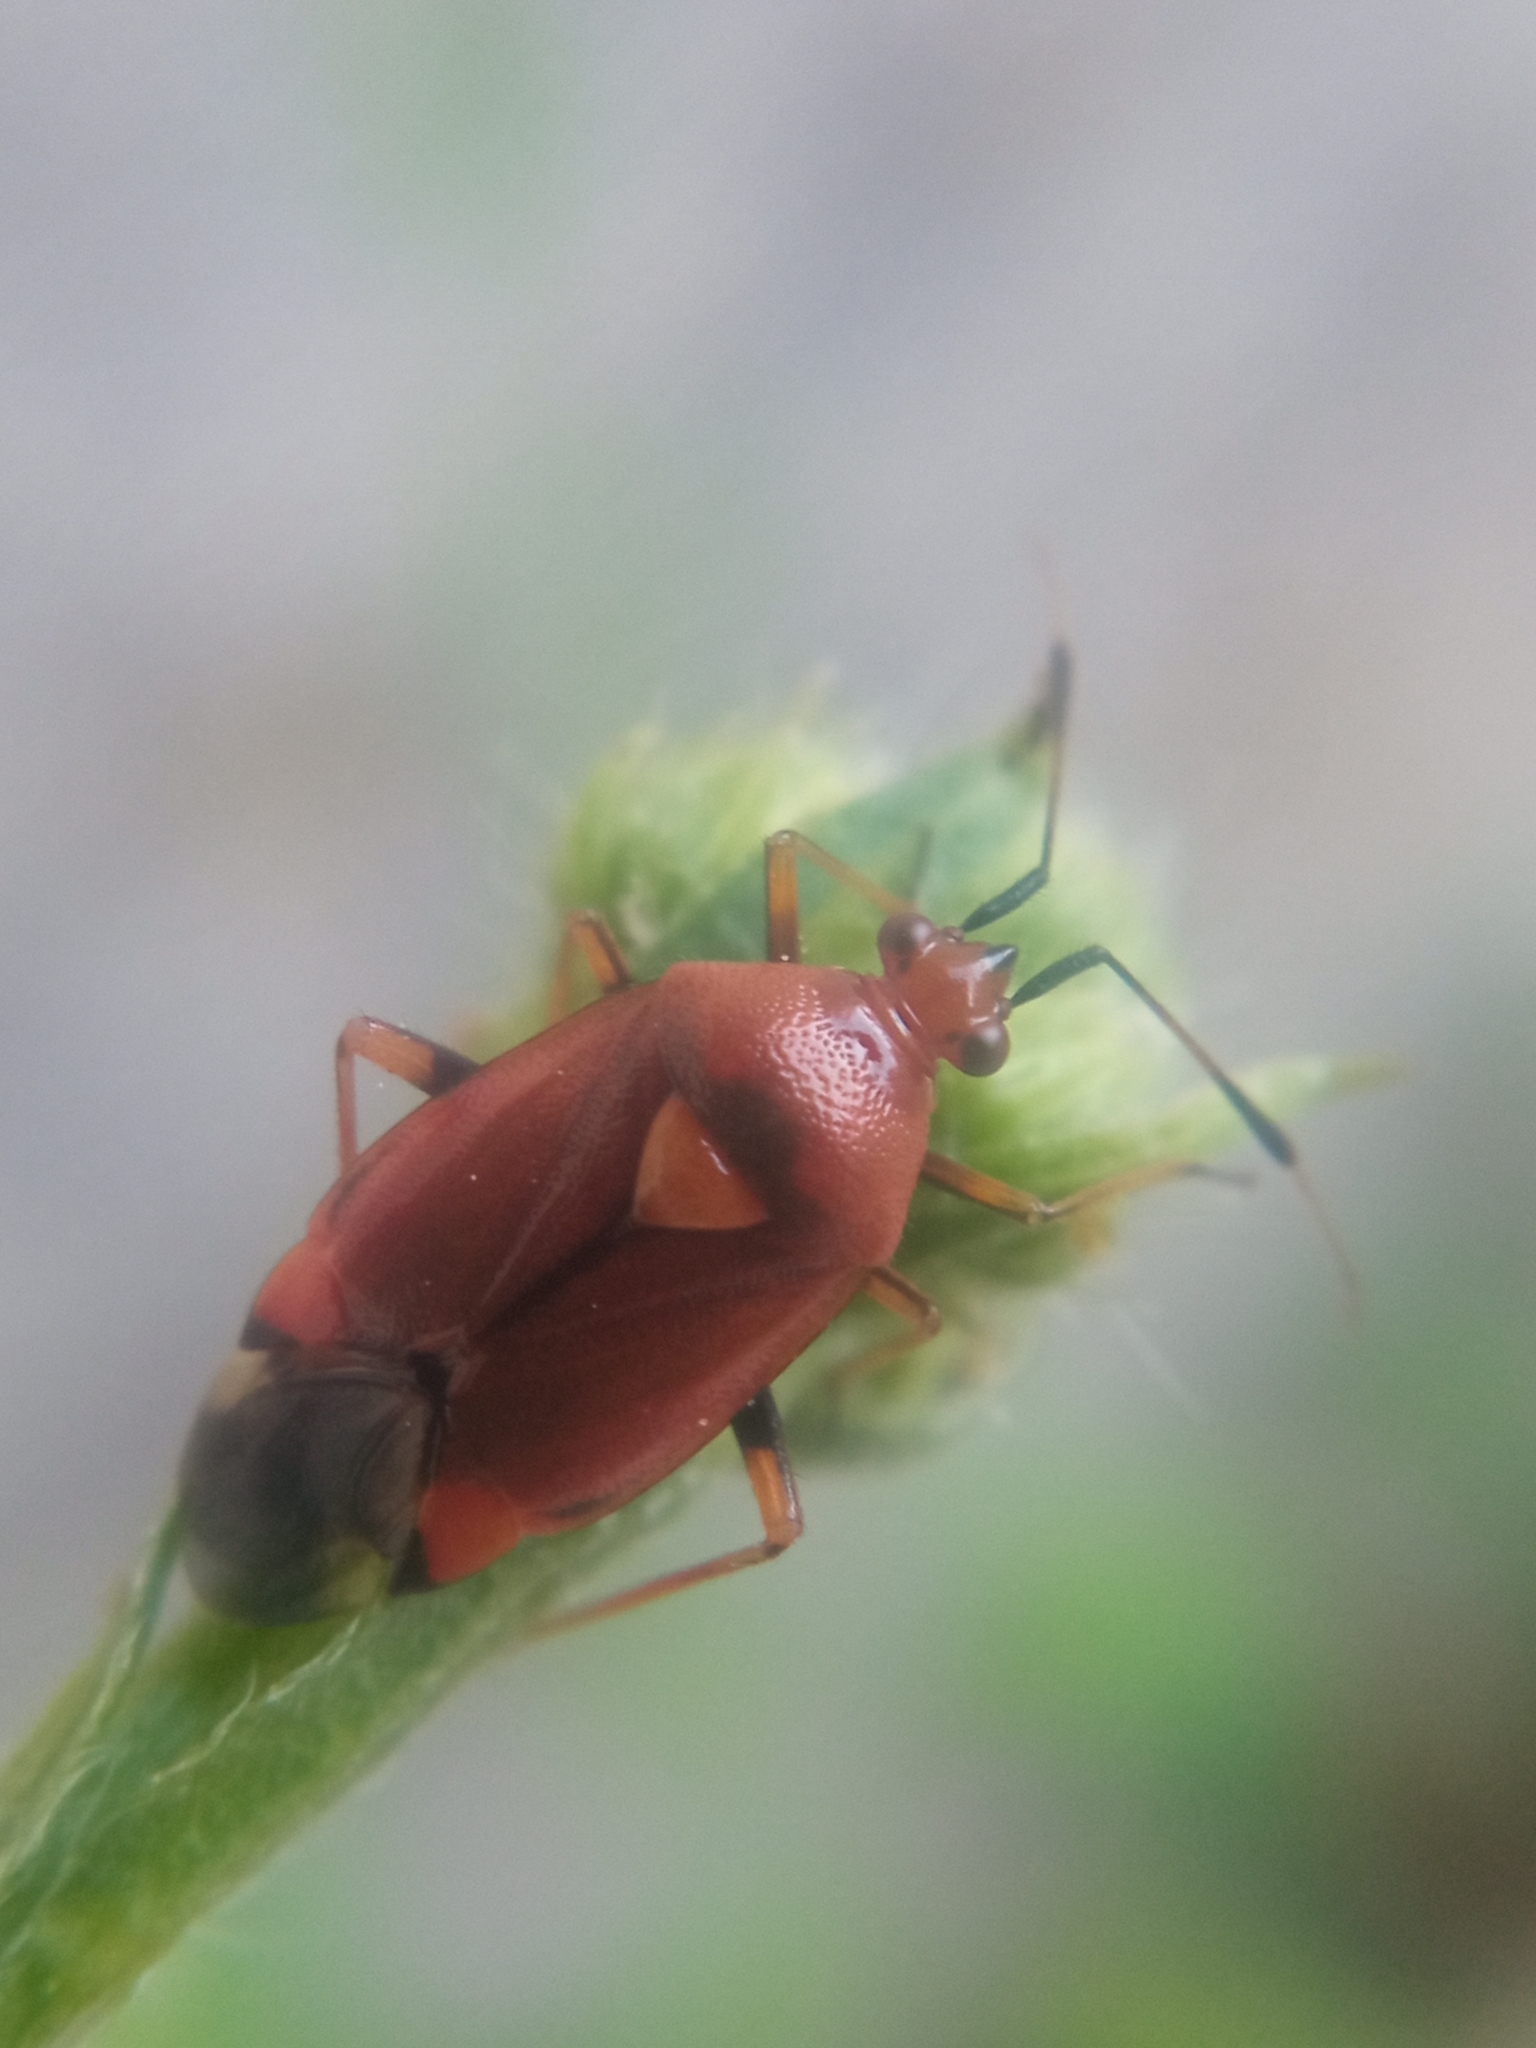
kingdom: Animalia
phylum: Arthropoda
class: Insecta
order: Hemiptera
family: Miridae
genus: Deraeocoris
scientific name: Deraeocoris ruber
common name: Plant bug
